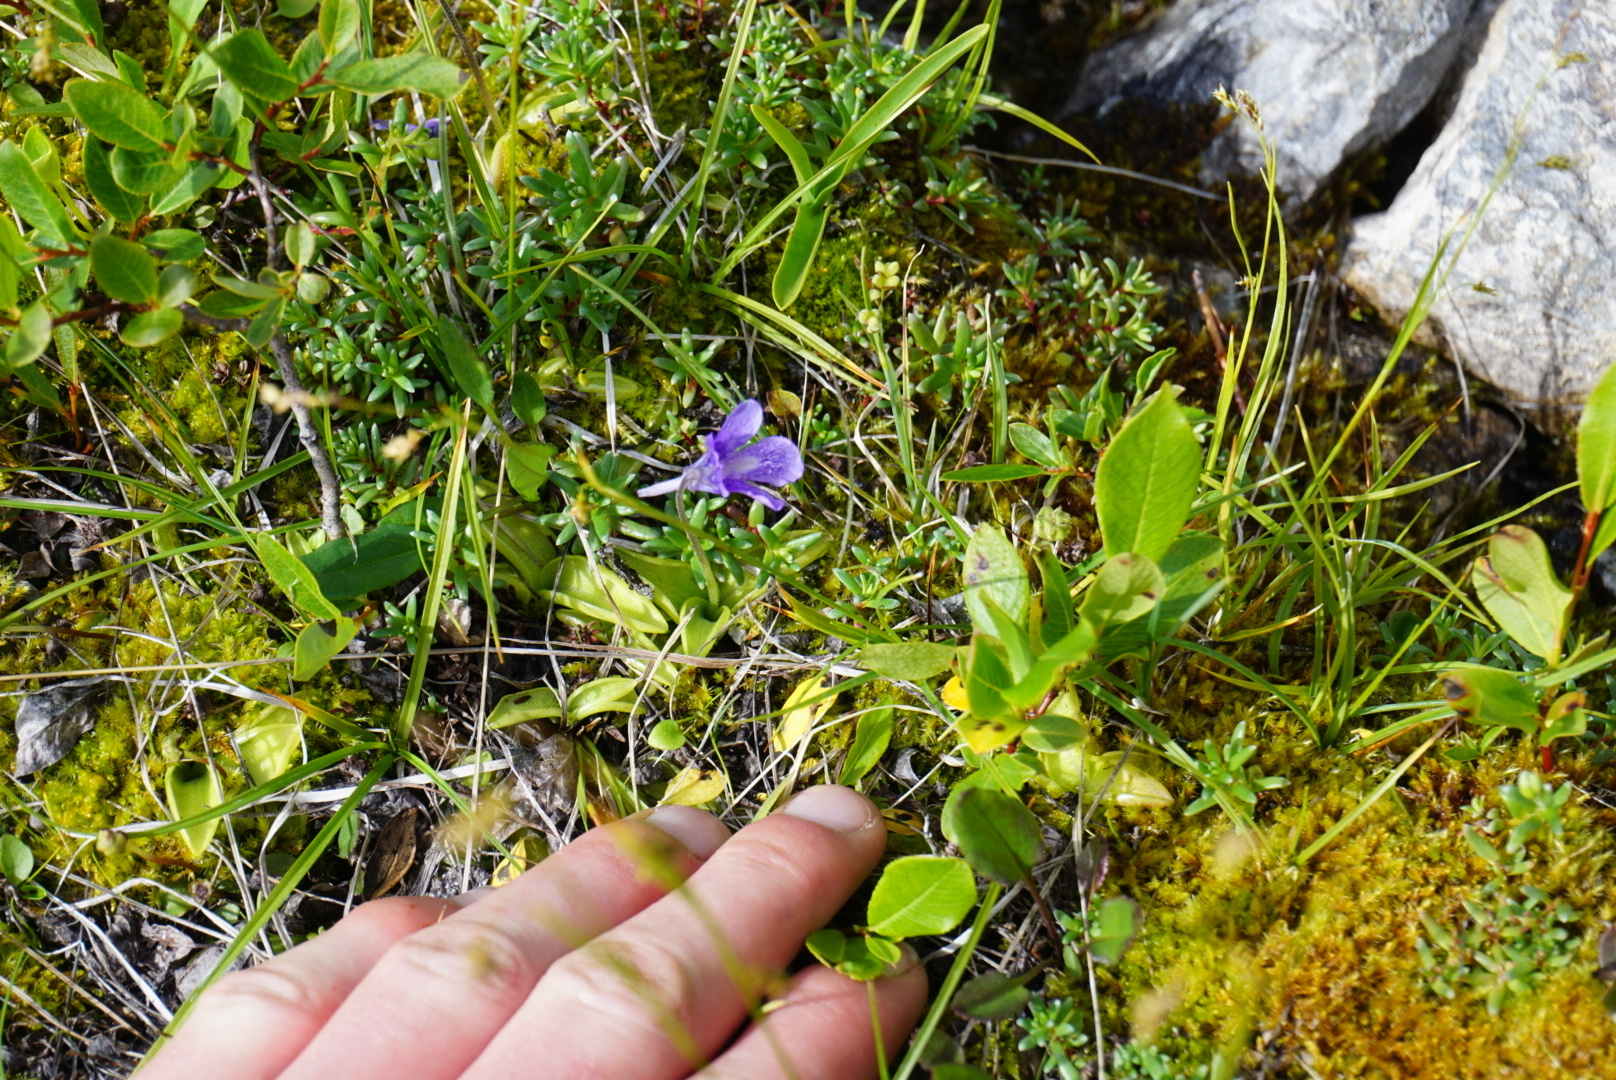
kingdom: Plantae
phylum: Tracheophyta
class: Magnoliopsida
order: Lamiales
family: Lentibulariaceae
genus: Pinguicula
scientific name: Pinguicula vulgaris
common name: Common butterwort
